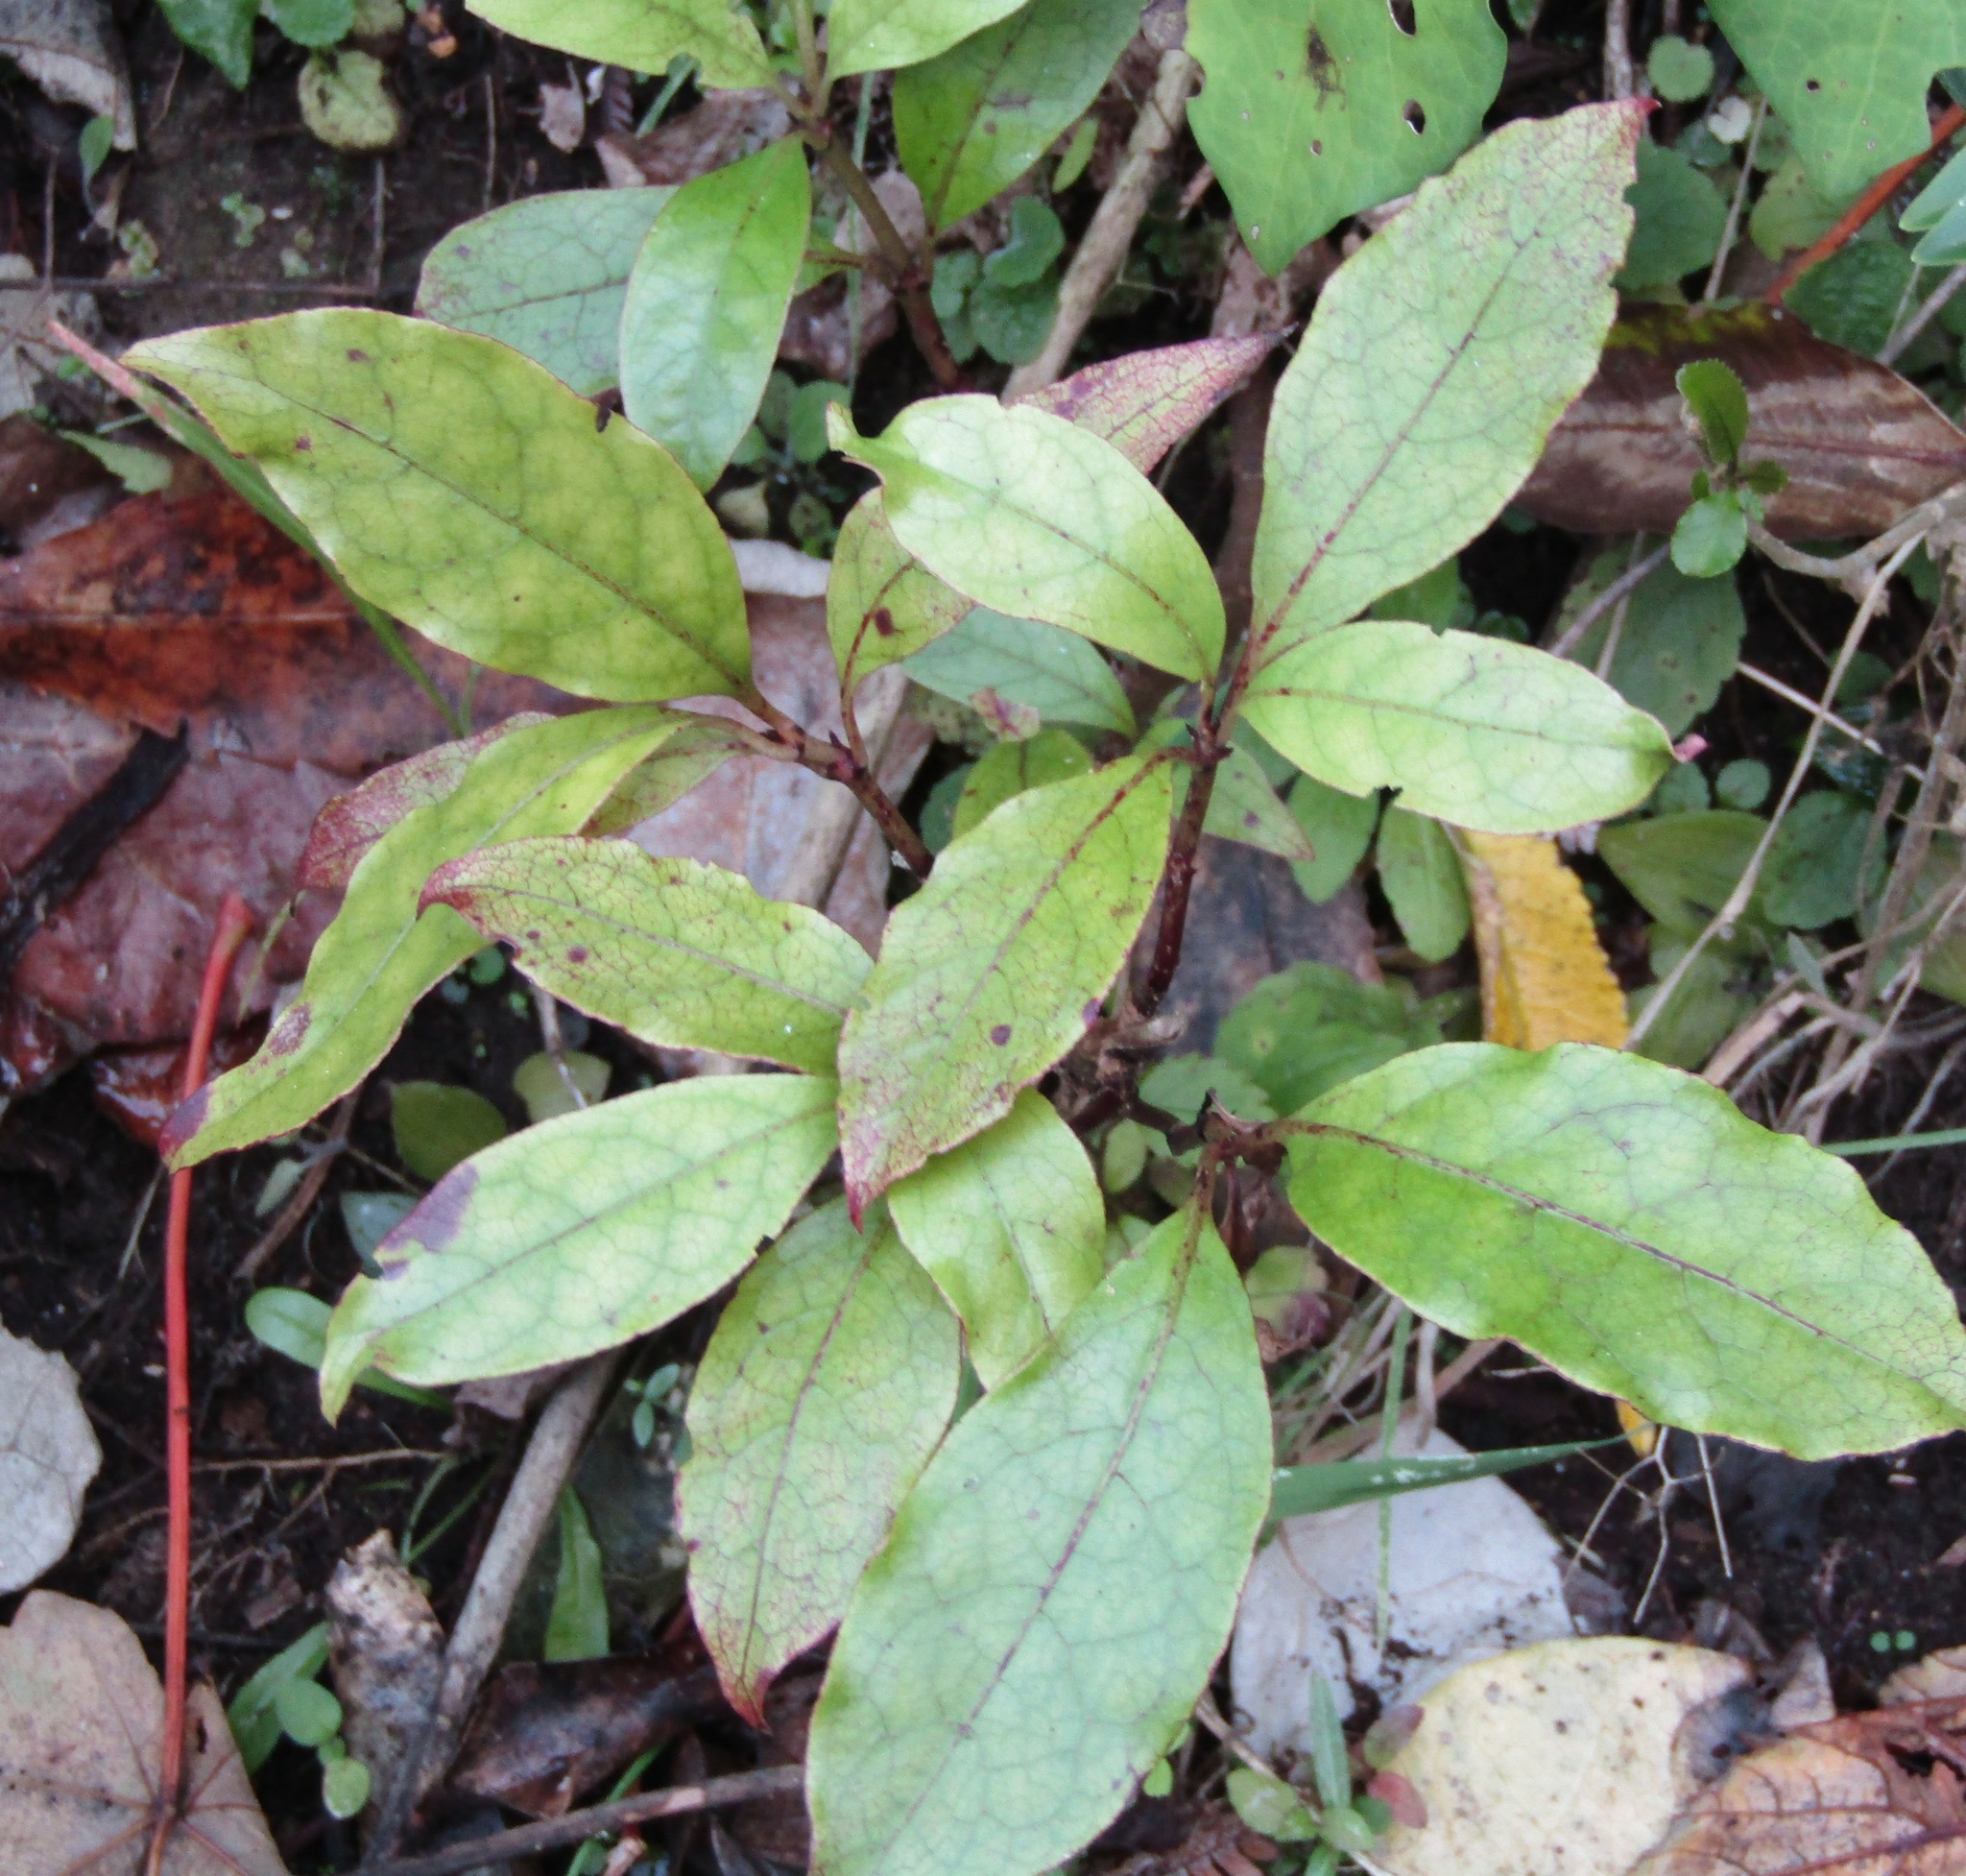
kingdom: Plantae
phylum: Tracheophyta
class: Magnoliopsida
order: Gentianales
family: Rubiaceae
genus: Coprosma
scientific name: Coprosma autumnalis
